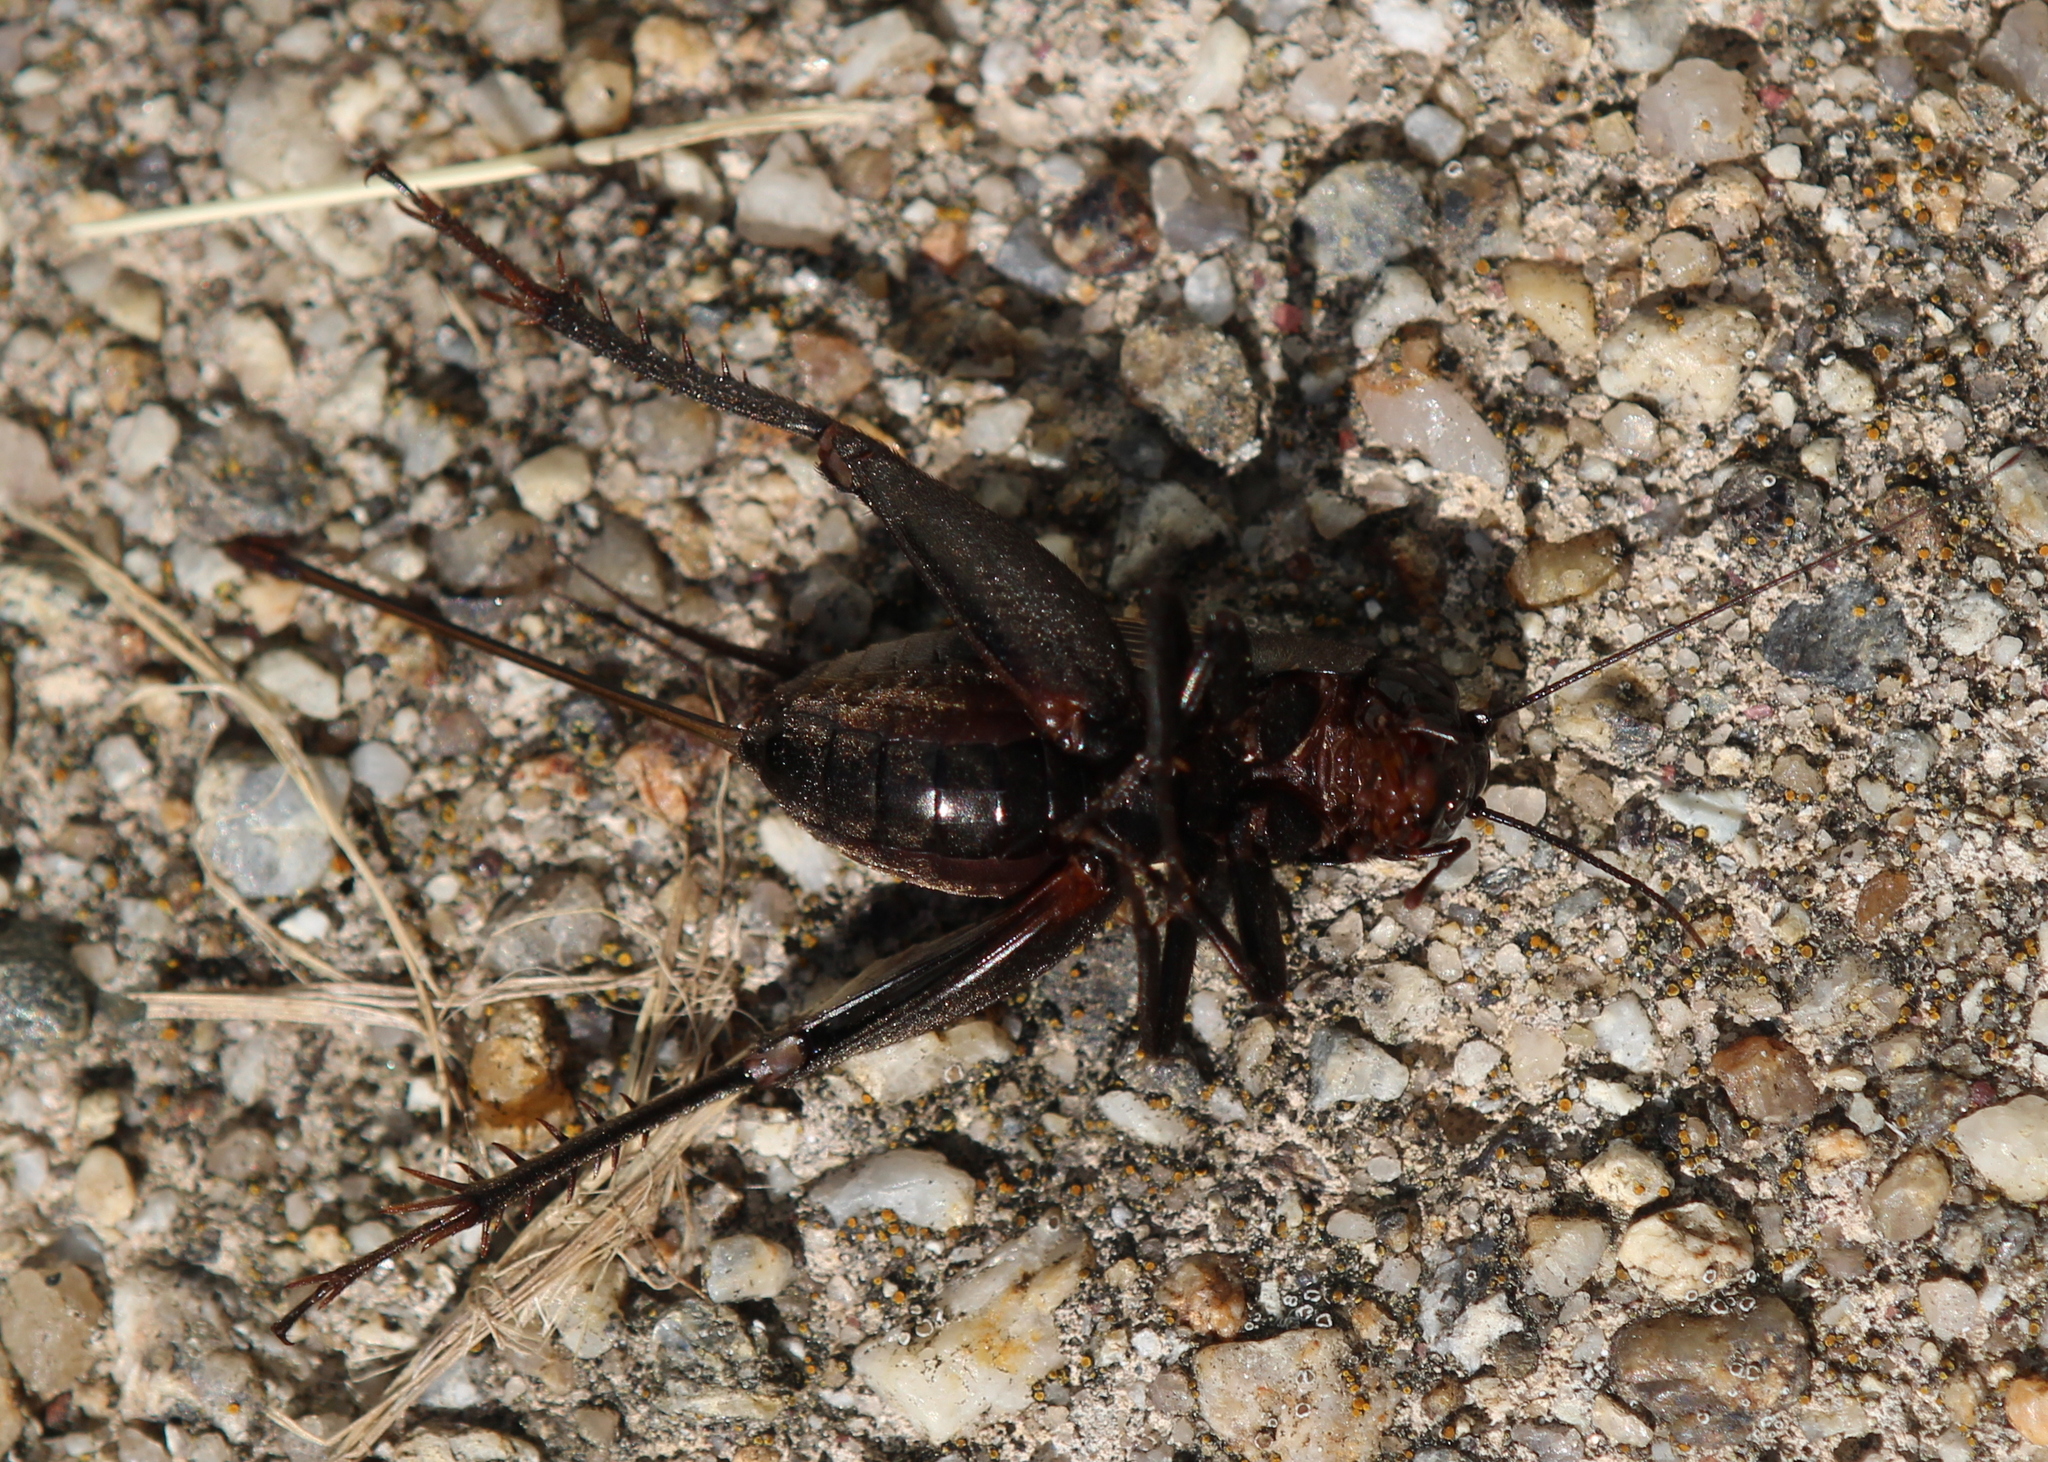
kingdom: Animalia
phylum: Arthropoda
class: Insecta
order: Orthoptera
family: Gryllidae
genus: Gryllus
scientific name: Gryllus pennsylvanicus
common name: Fall field cricket
